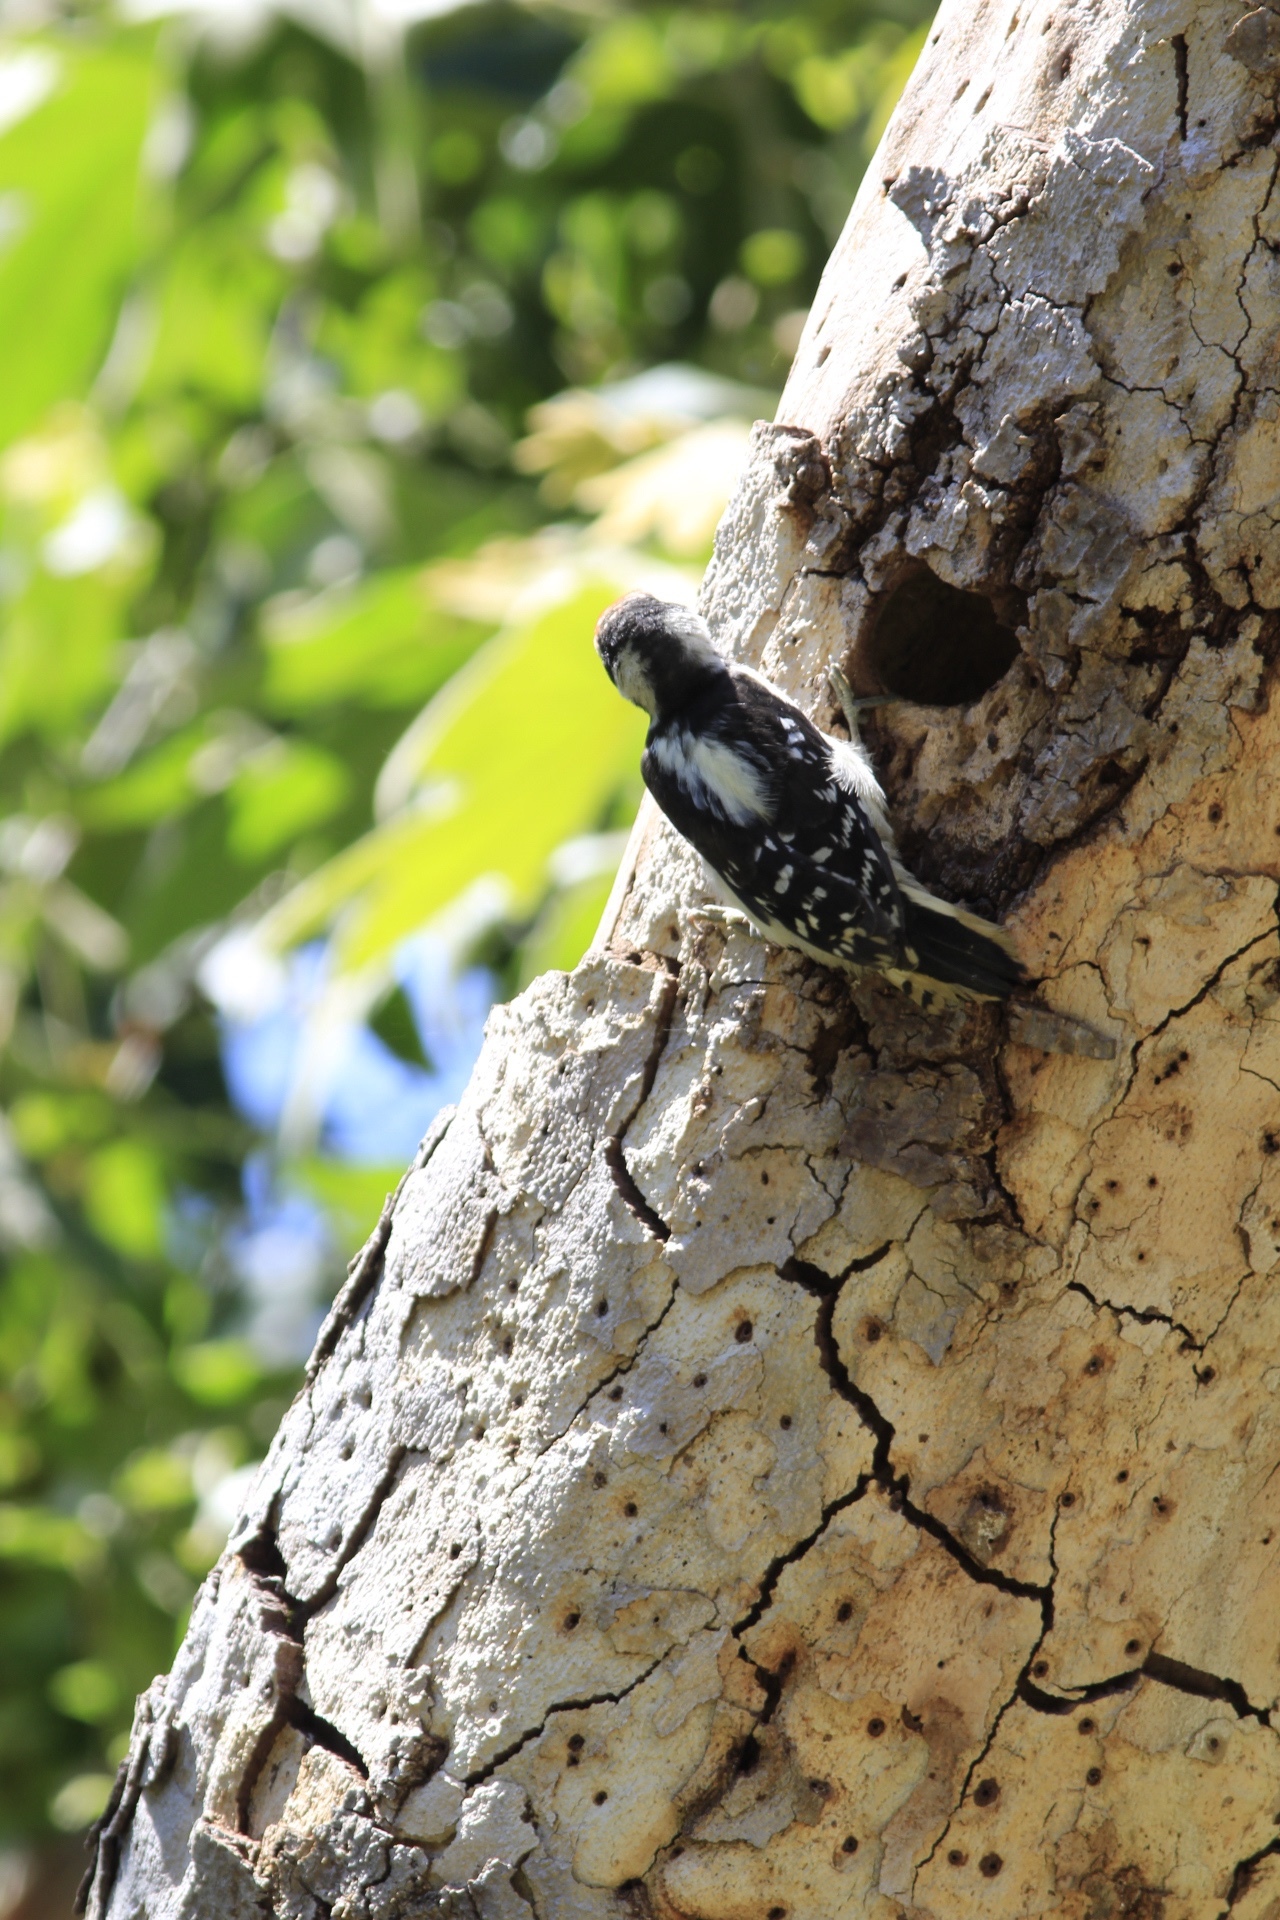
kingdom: Animalia
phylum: Chordata
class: Aves
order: Piciformes
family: Picidae
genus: Dryobates
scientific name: Dryobates pubescens
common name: Downy woodpecker
